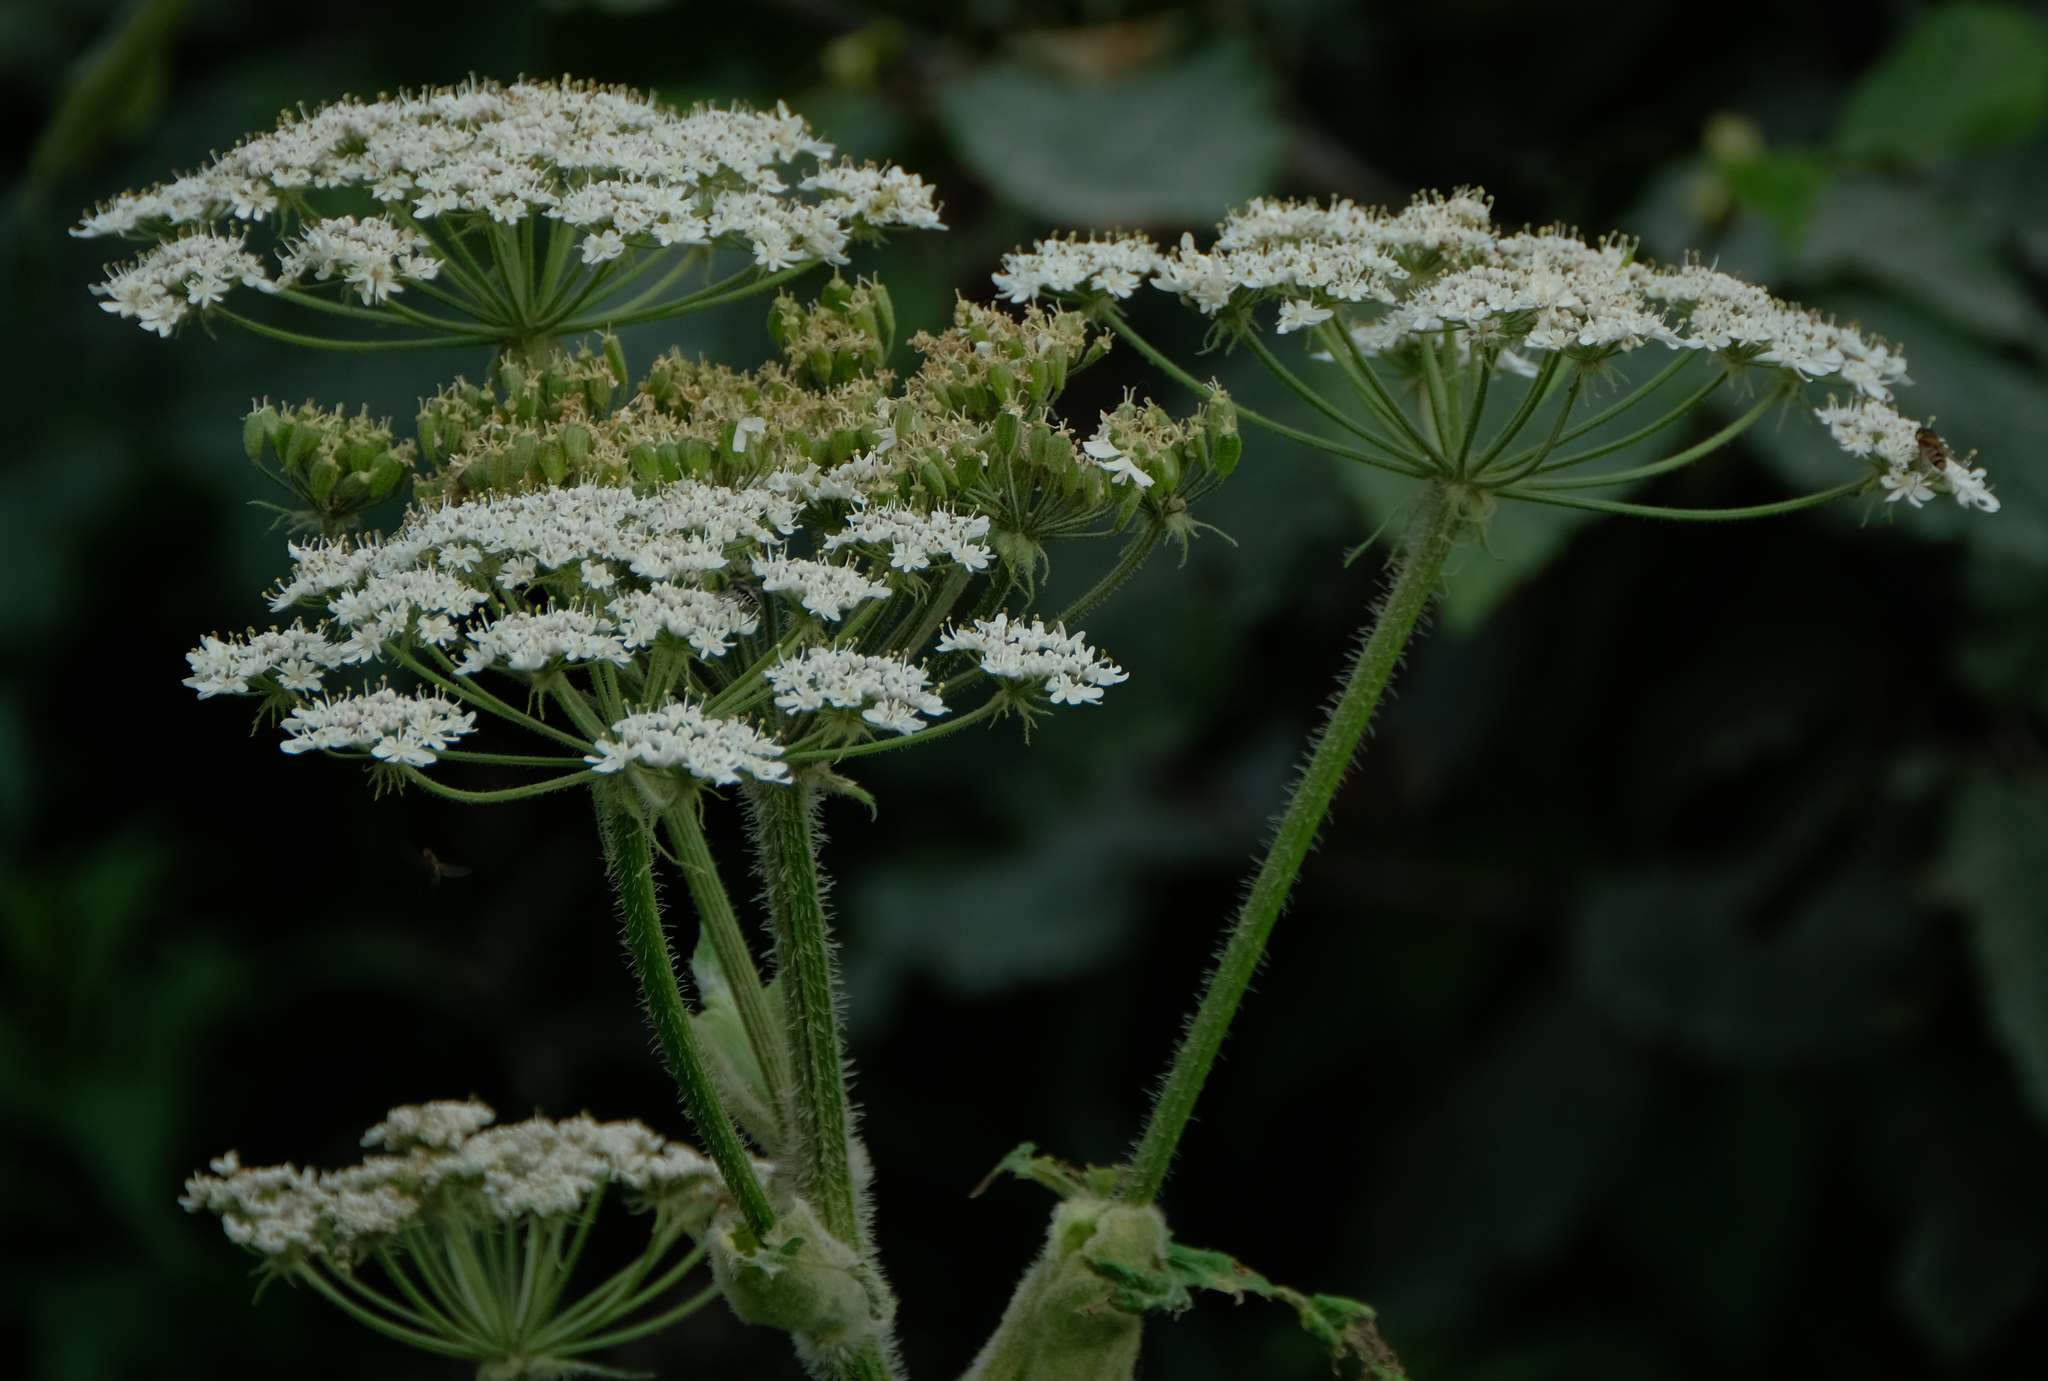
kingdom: Plantae
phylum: Tracheophyta
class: Magnoliopsida
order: Apiales
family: Apiaceae
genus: Heracleum
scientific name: Heracleum maximum
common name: American cow parsnip
